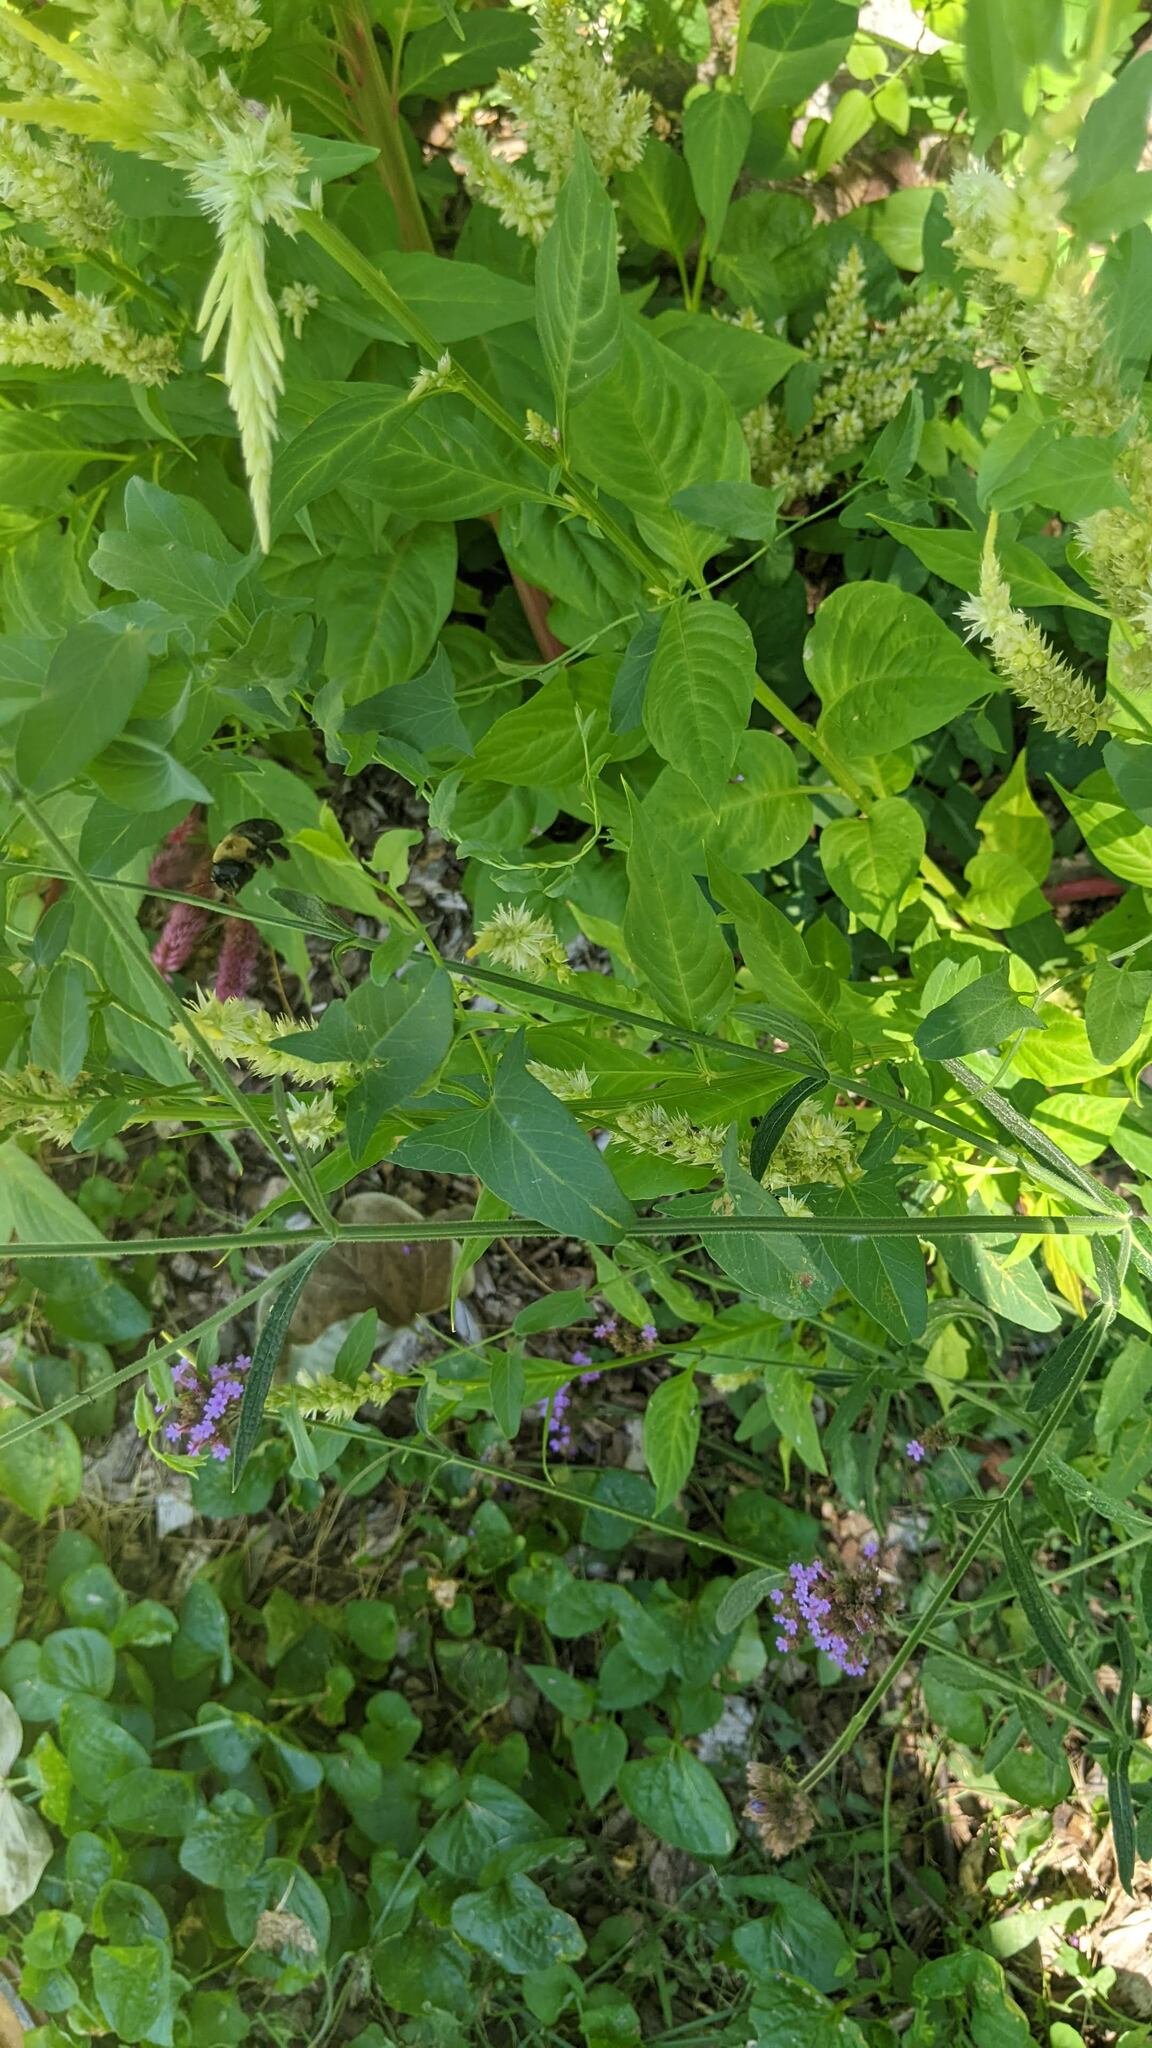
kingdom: Animalia
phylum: Arthropoda
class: Insecta
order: Hymenoptera
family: Apidae
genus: Xylocopa
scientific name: Xylocopa virginica
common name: Carpenter bee
